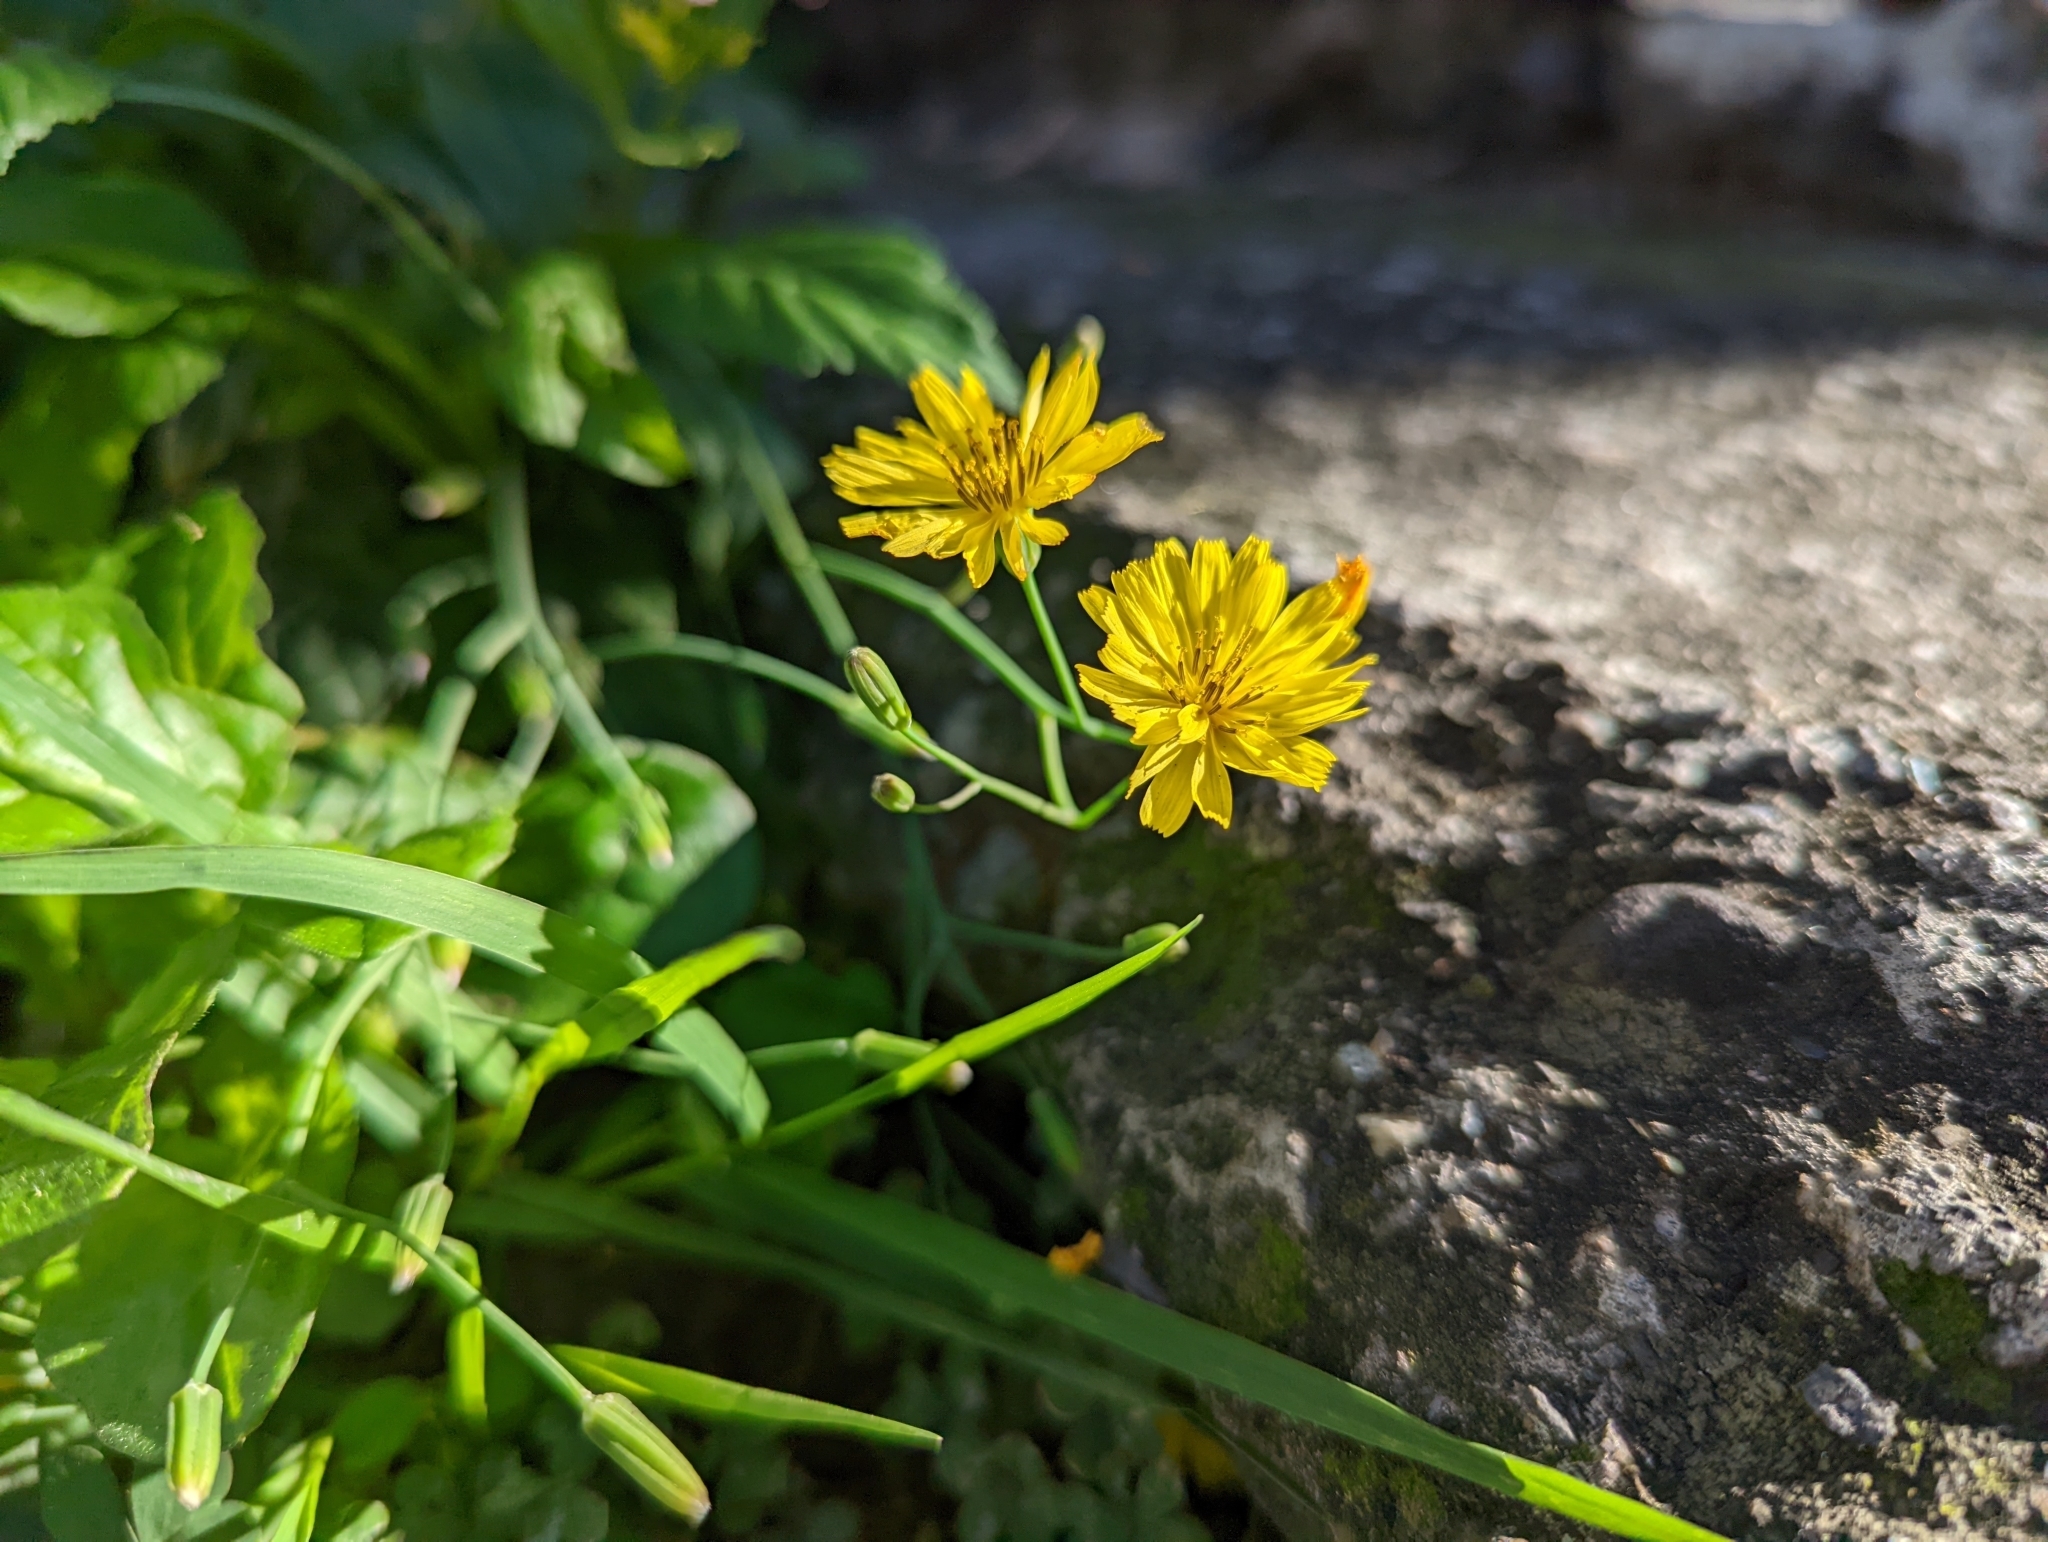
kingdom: Plantae
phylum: Tracheophyta
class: Magnoliopsida
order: Asterales
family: Asteraceae
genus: Ixeris
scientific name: Ixeris chinensis
